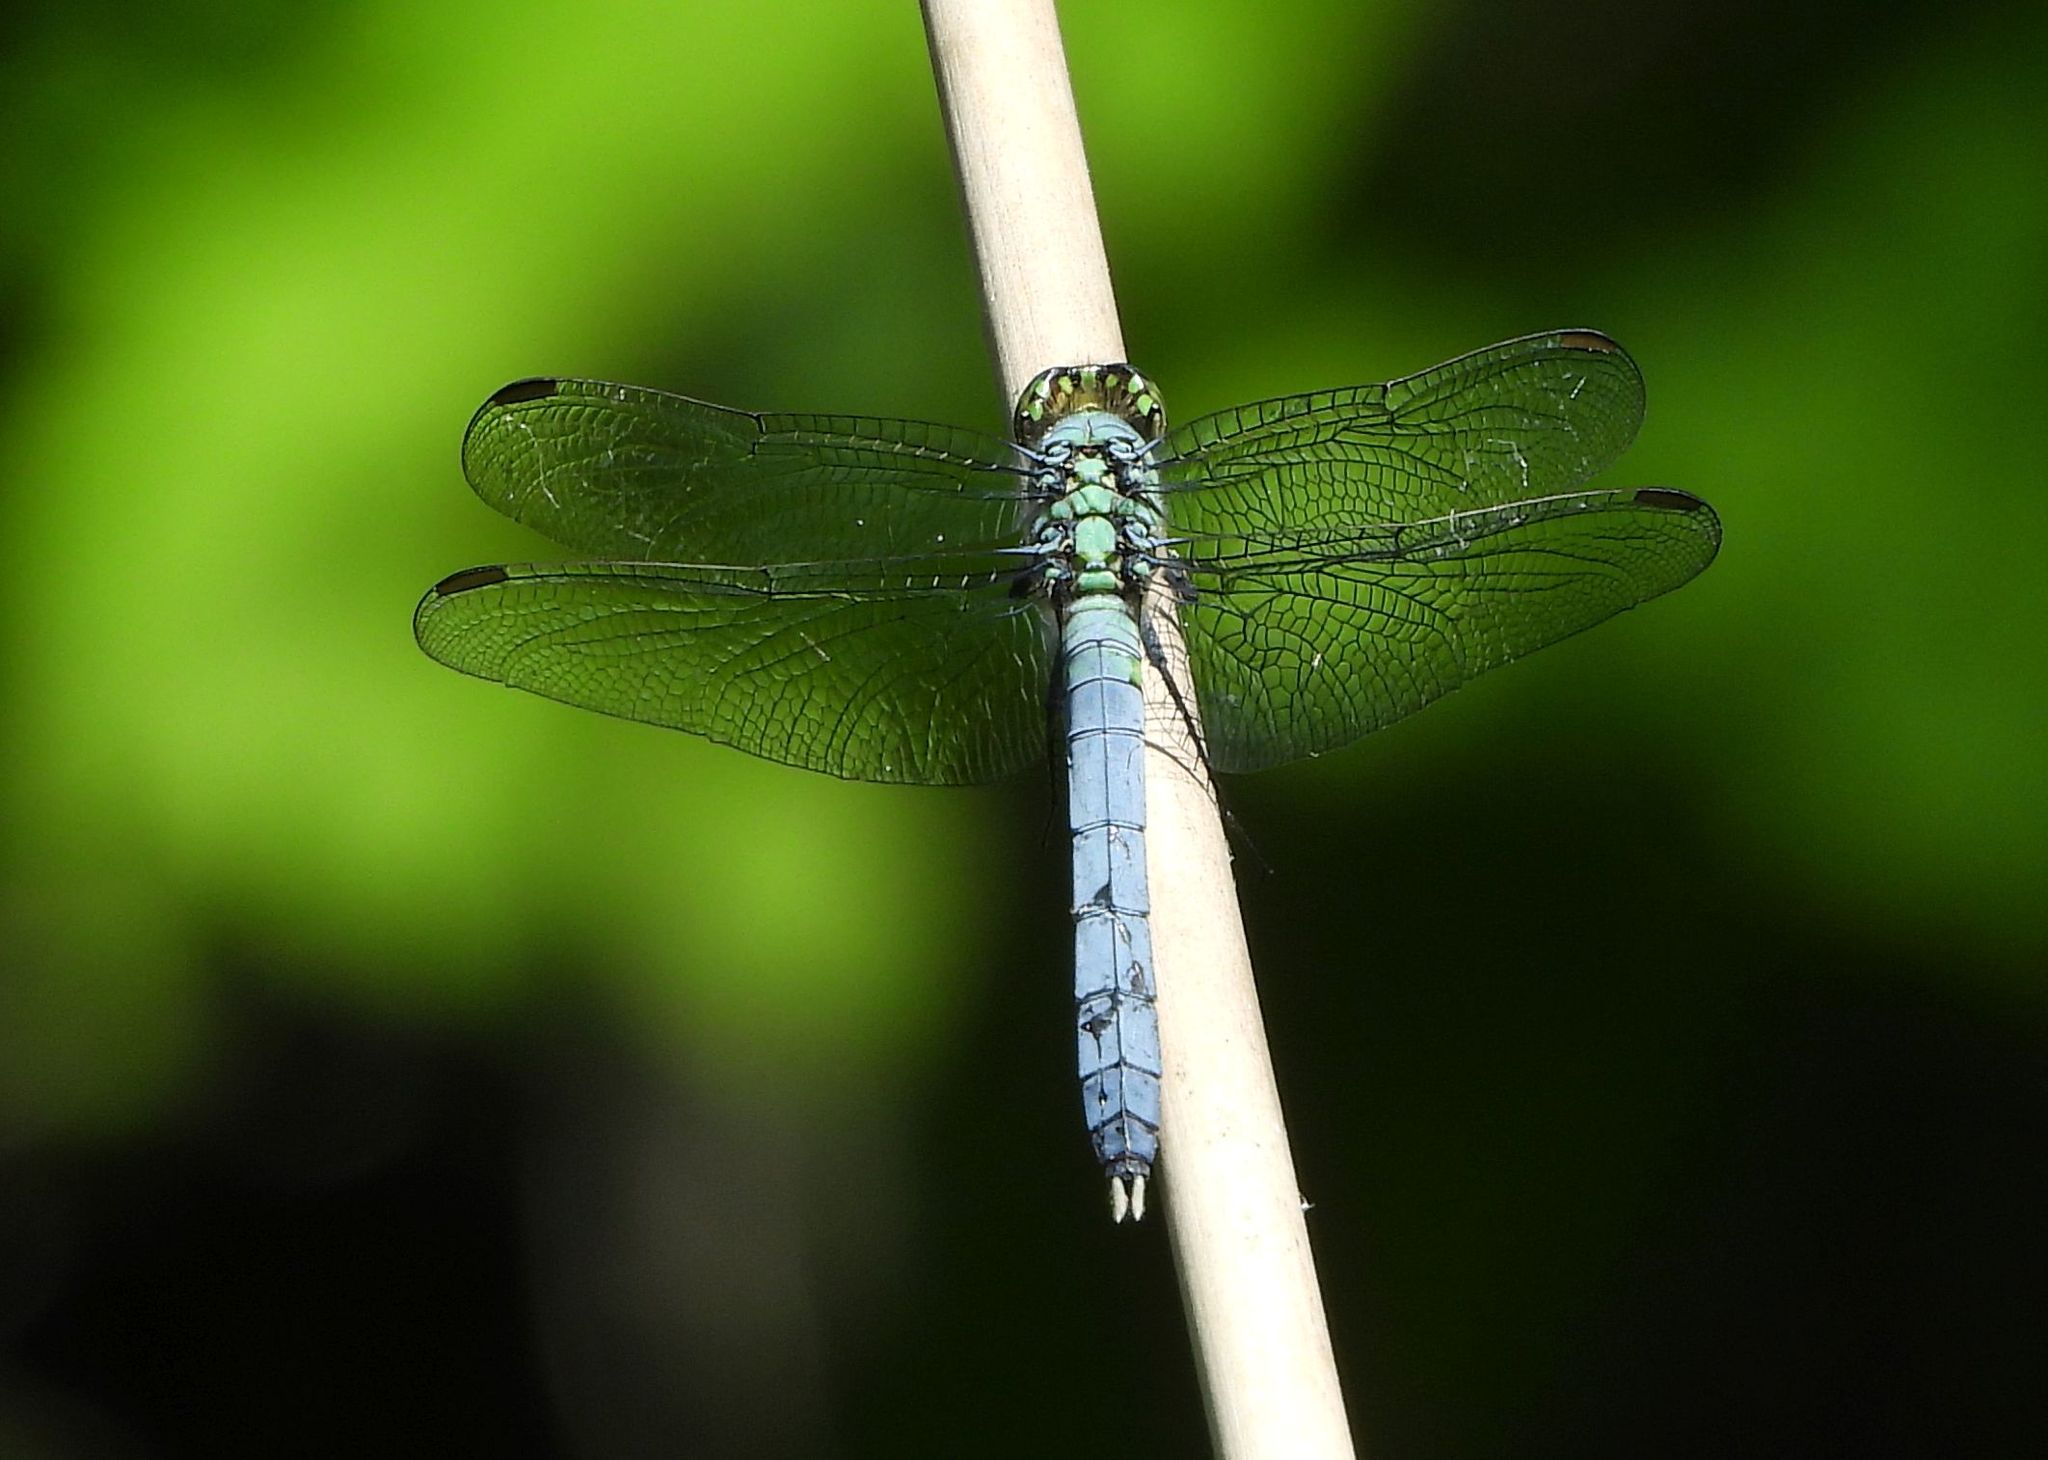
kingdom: Animalia
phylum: Arthropoda
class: Insecta
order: Odonata
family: Libellulidae
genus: Erythemis
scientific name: Erythemis simplicicollis
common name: Eastern pondhawk
